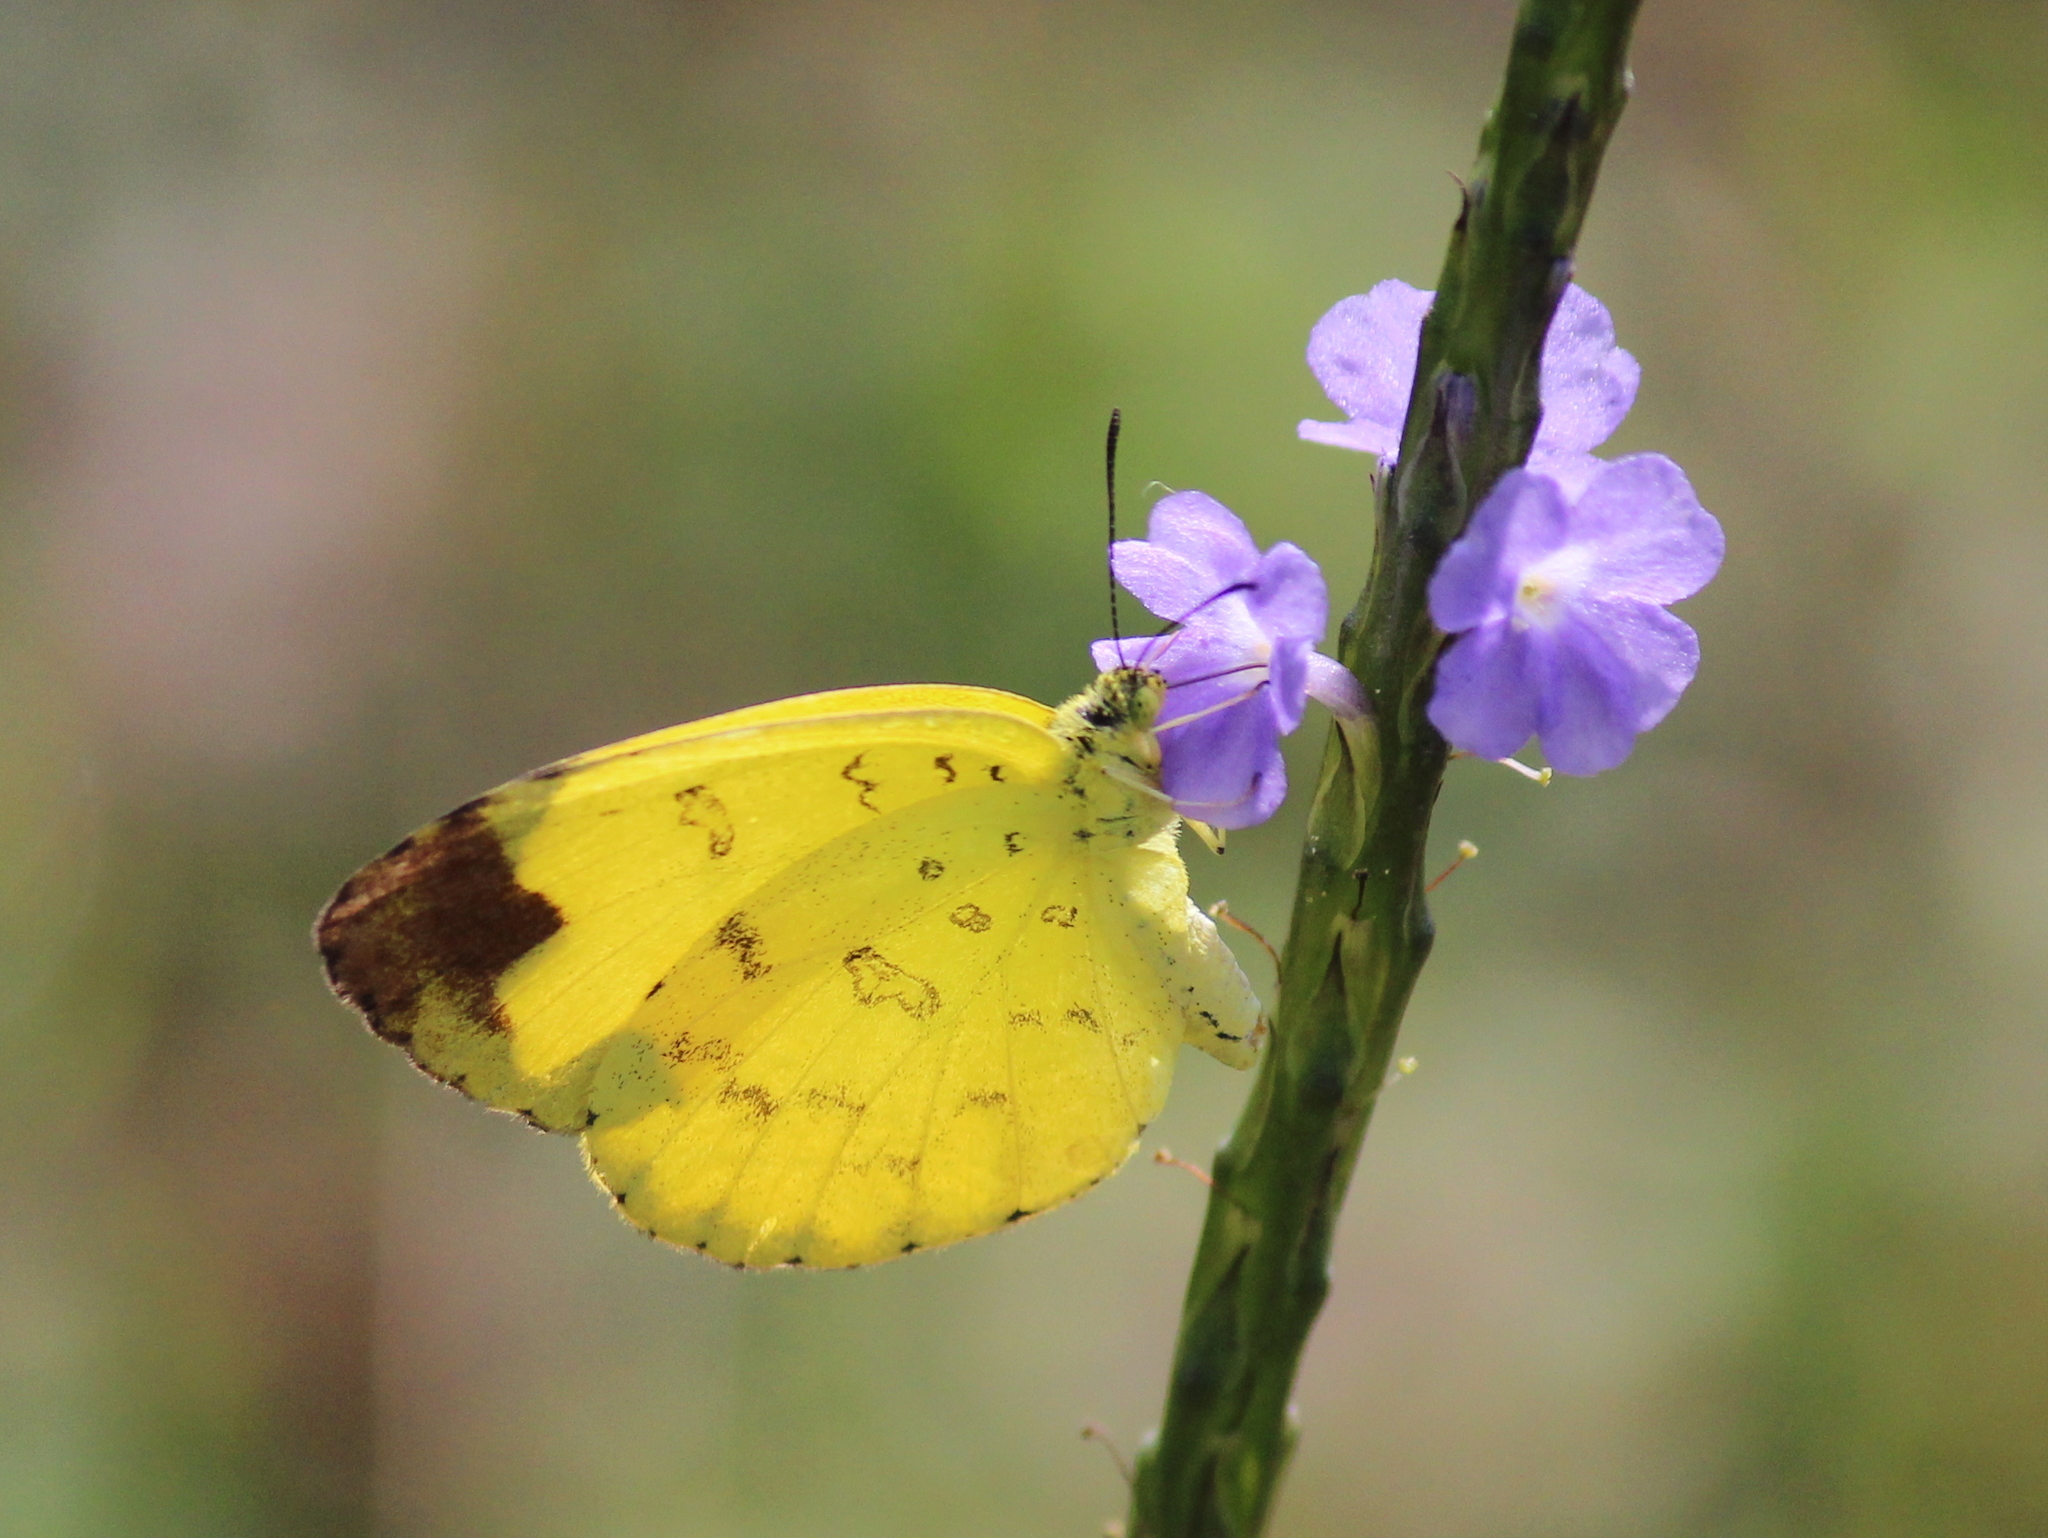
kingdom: Animalia
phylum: Arthropoda
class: Insecta
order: Lepidoptera
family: Pieridae
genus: Eurema
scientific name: Eurema blanda
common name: Three-spot grass yellow
